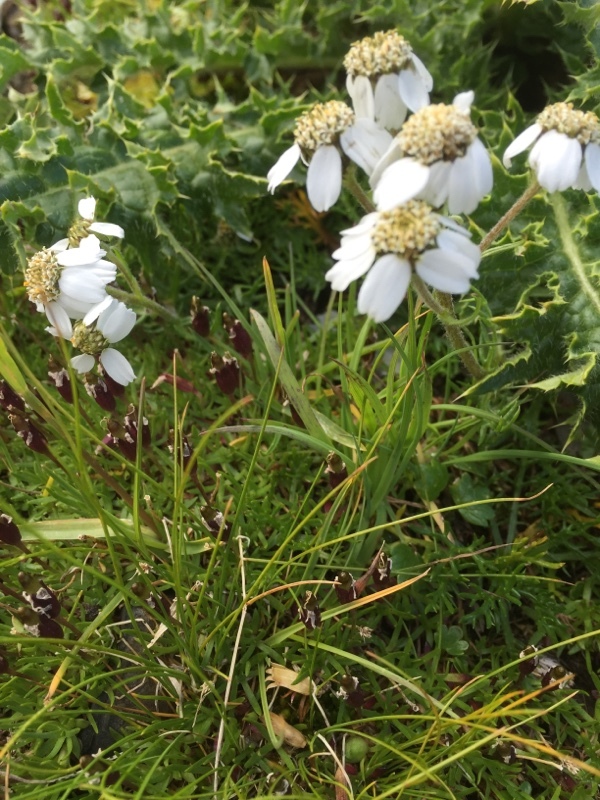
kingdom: Plantae
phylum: Tracheophyta
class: Magnoliopsida
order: Asterales
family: Asteraceae
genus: Achillea
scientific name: Achillea atrata
